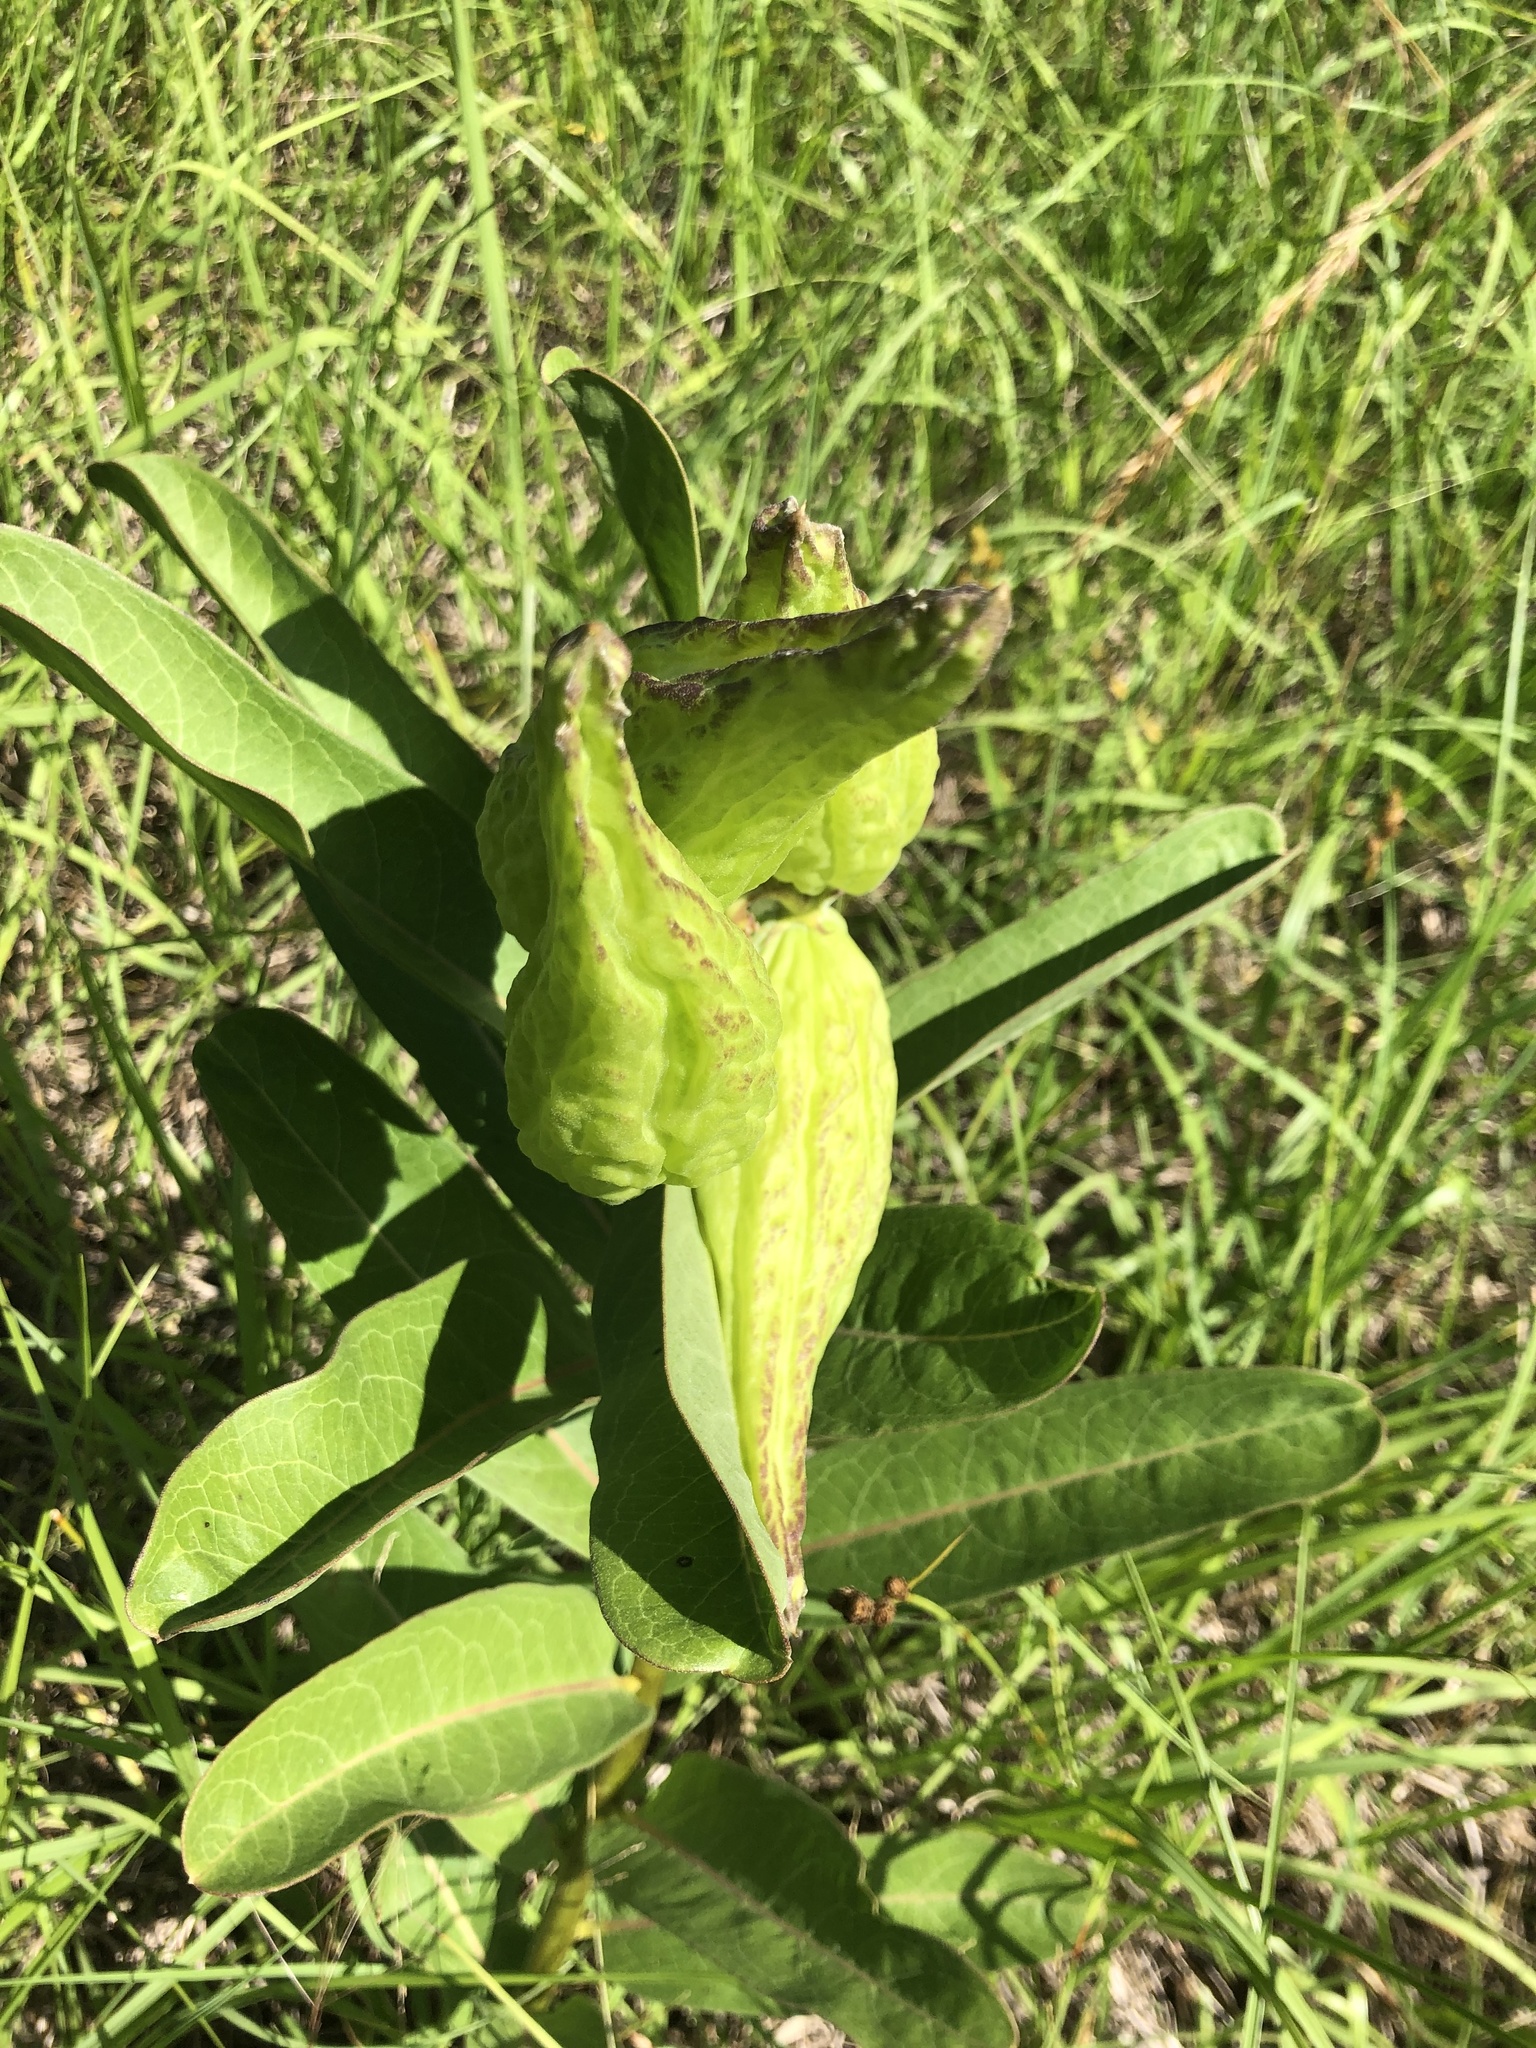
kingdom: Plantae
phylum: Tracheophyta
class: Magnoliopsida
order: Gentianales
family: Apocynaceae
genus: Asclepias
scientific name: Asclepias viridis
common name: Antelope-horns
